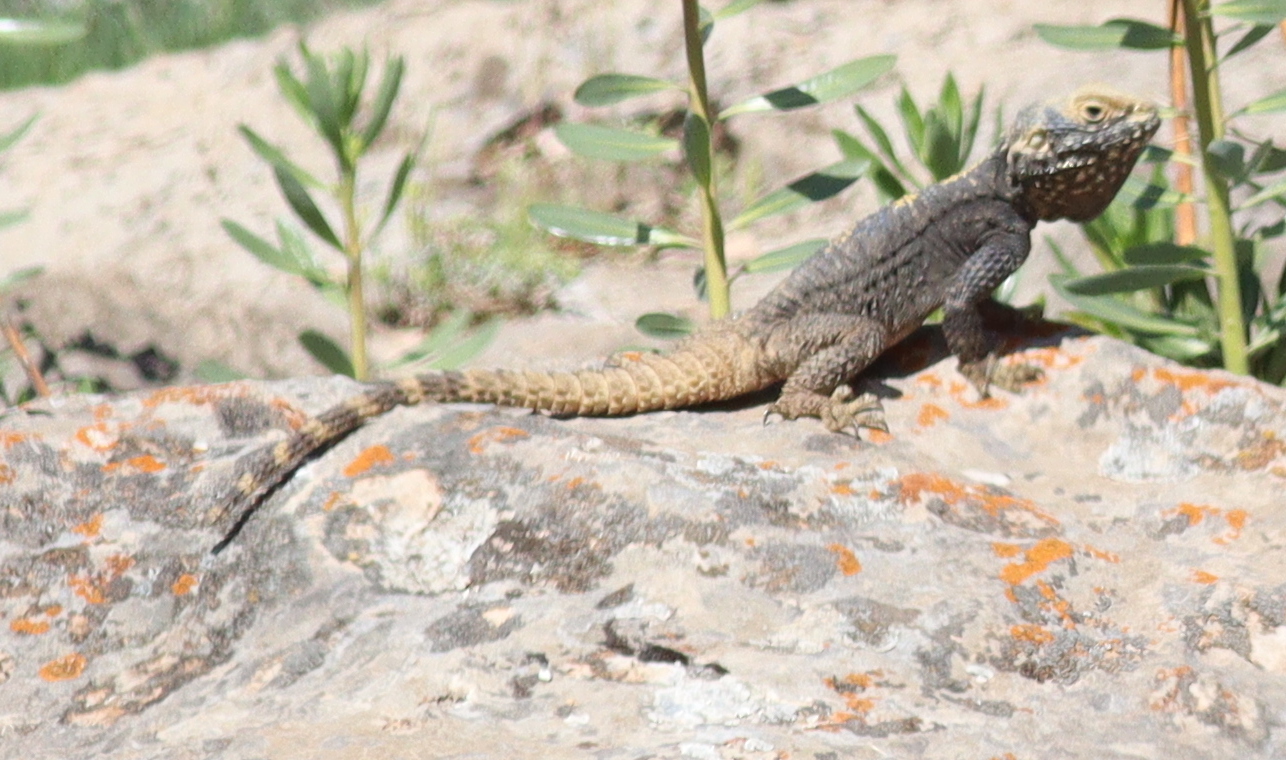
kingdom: Animalia
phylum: Chordata
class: Squamata
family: Agamidae
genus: Stellagama
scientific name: Stellagama stellio
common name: Starred agama
